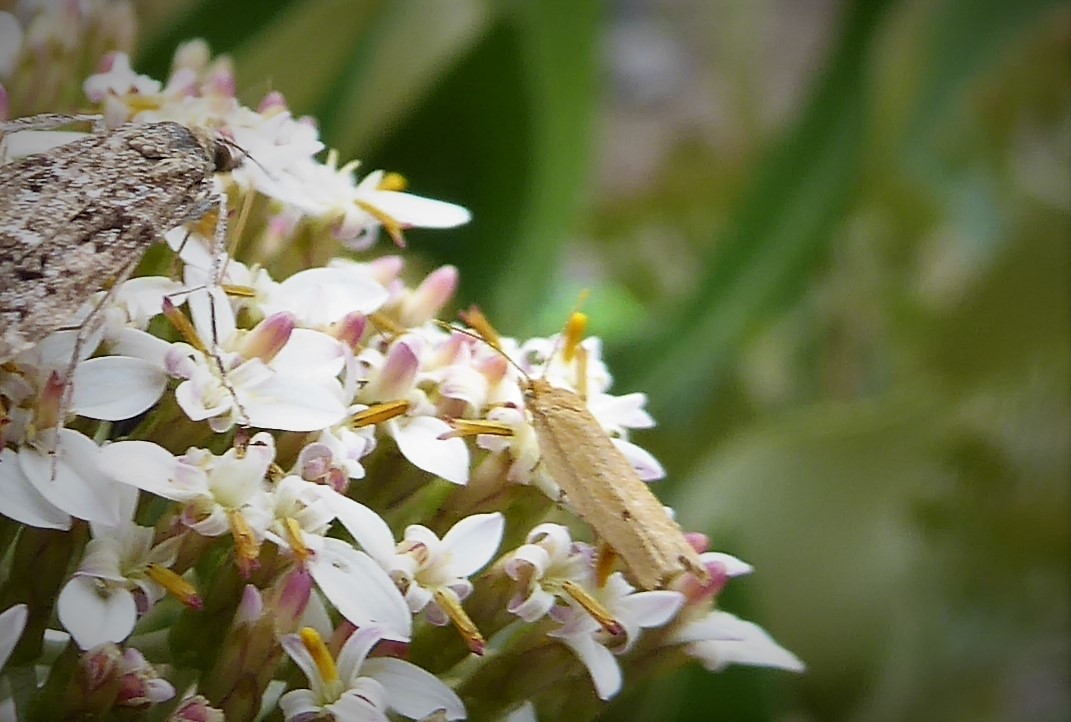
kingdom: Animalia
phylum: Arthropoda
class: Insecta
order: Lepidoptera
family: Tortricidae
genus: Epichorista
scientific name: Epichorista siriana
